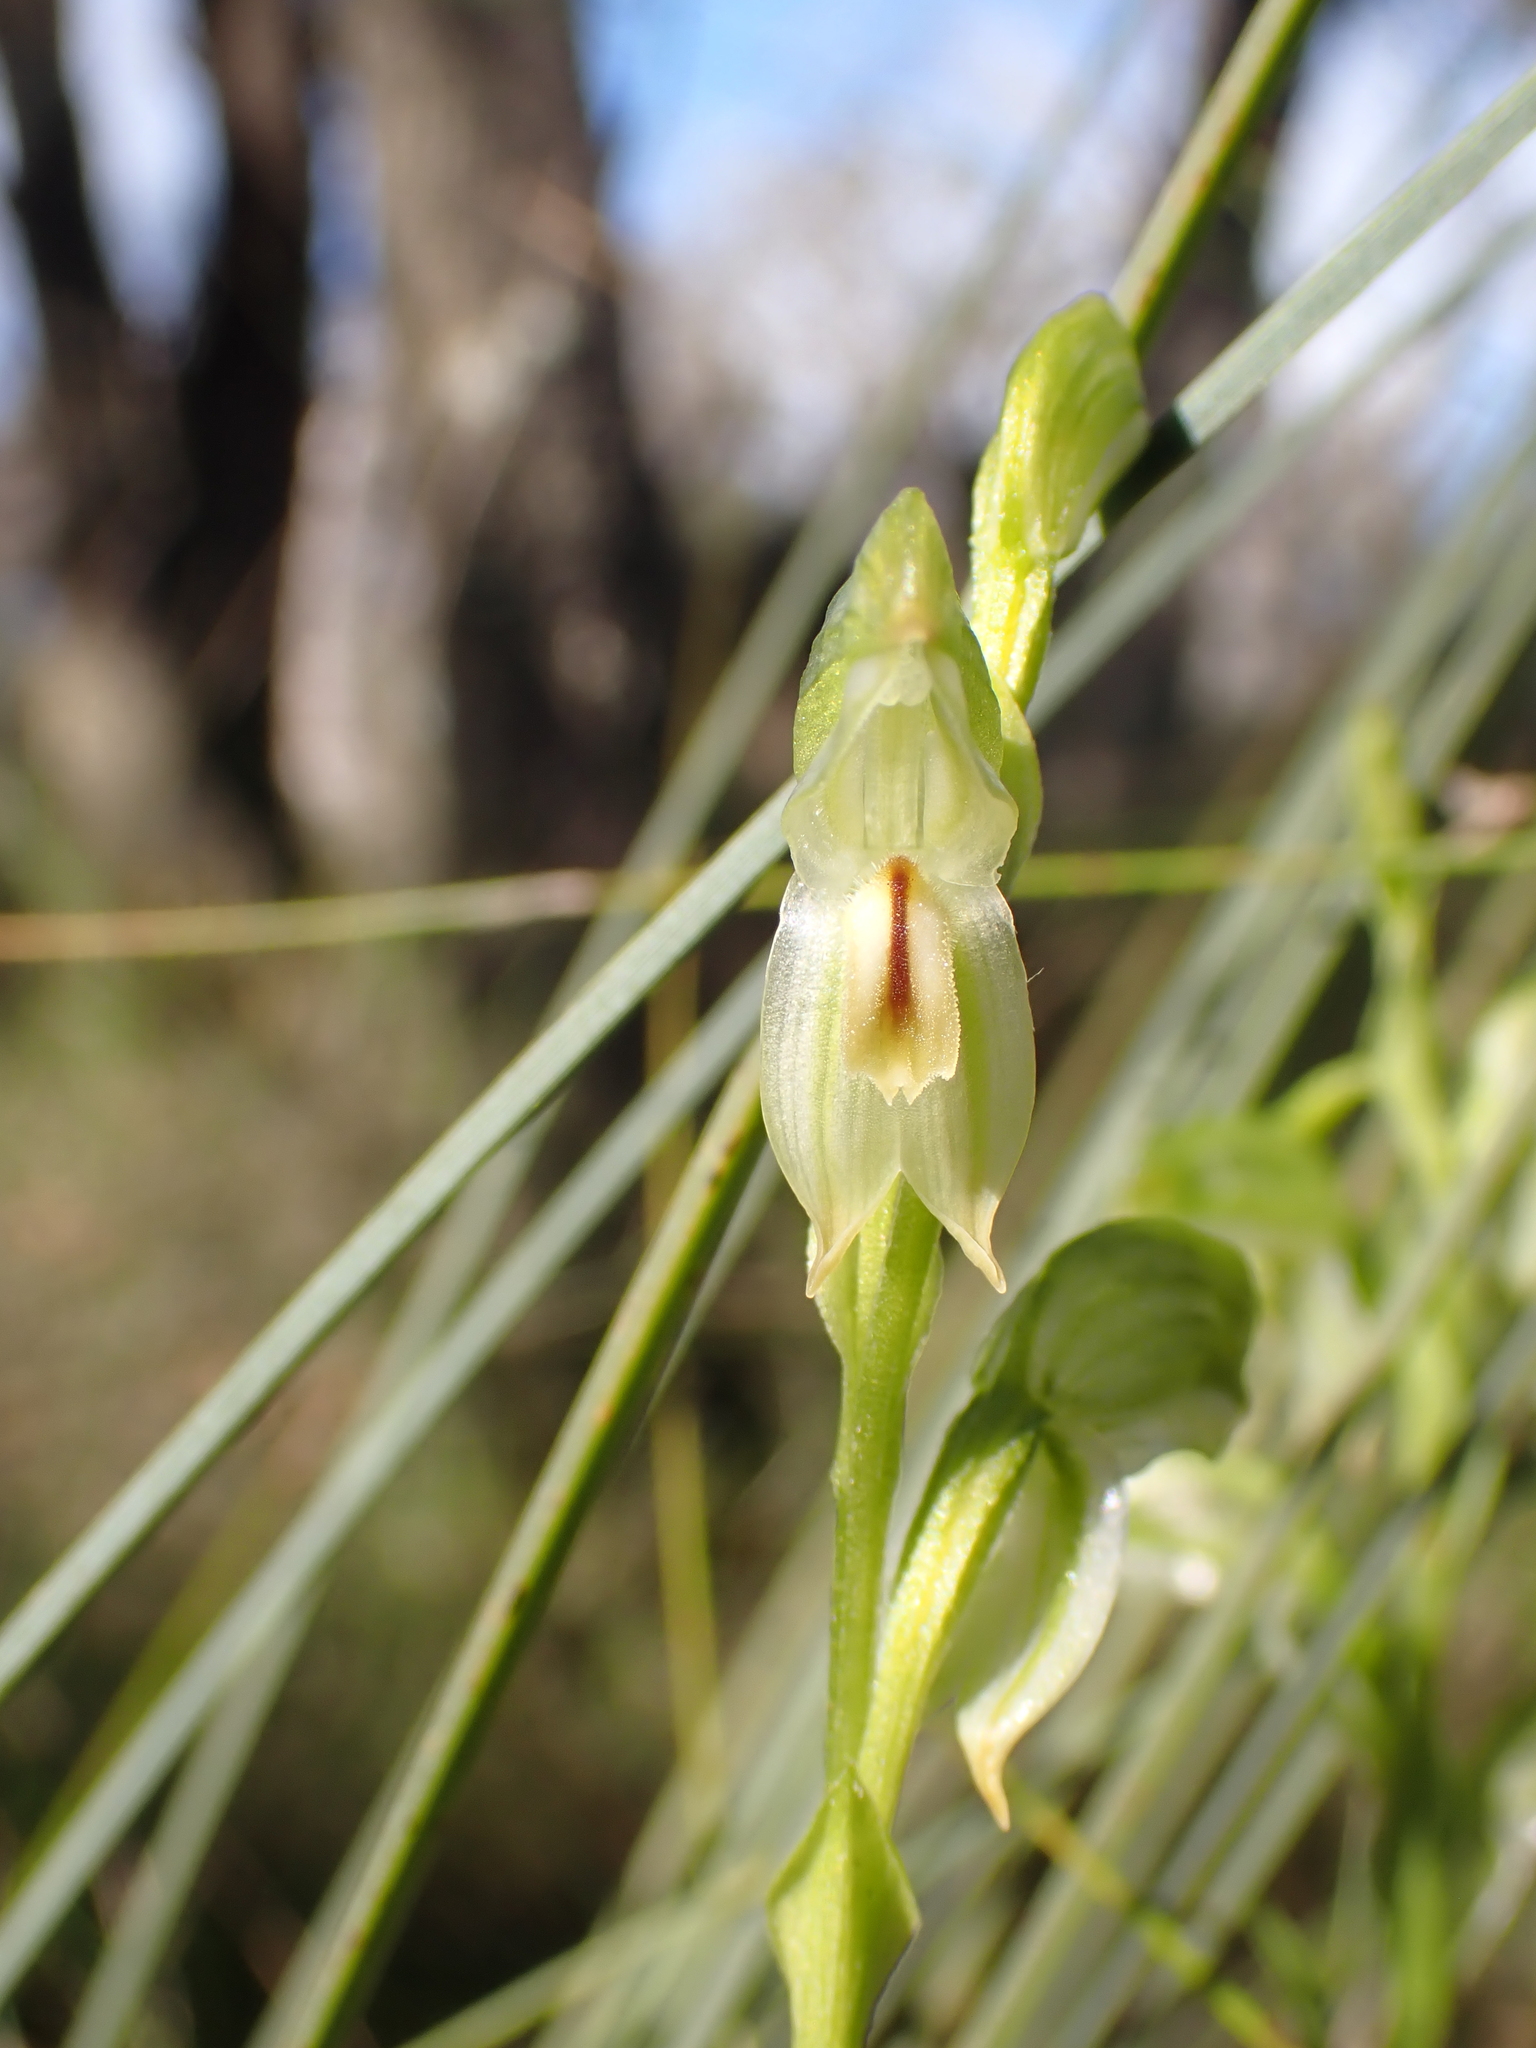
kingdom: Plantae
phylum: Tracheophyta
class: Liliopsida
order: Asparagales
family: Orchidaceae
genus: Pterostylis
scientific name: Pterostylis melagramma
